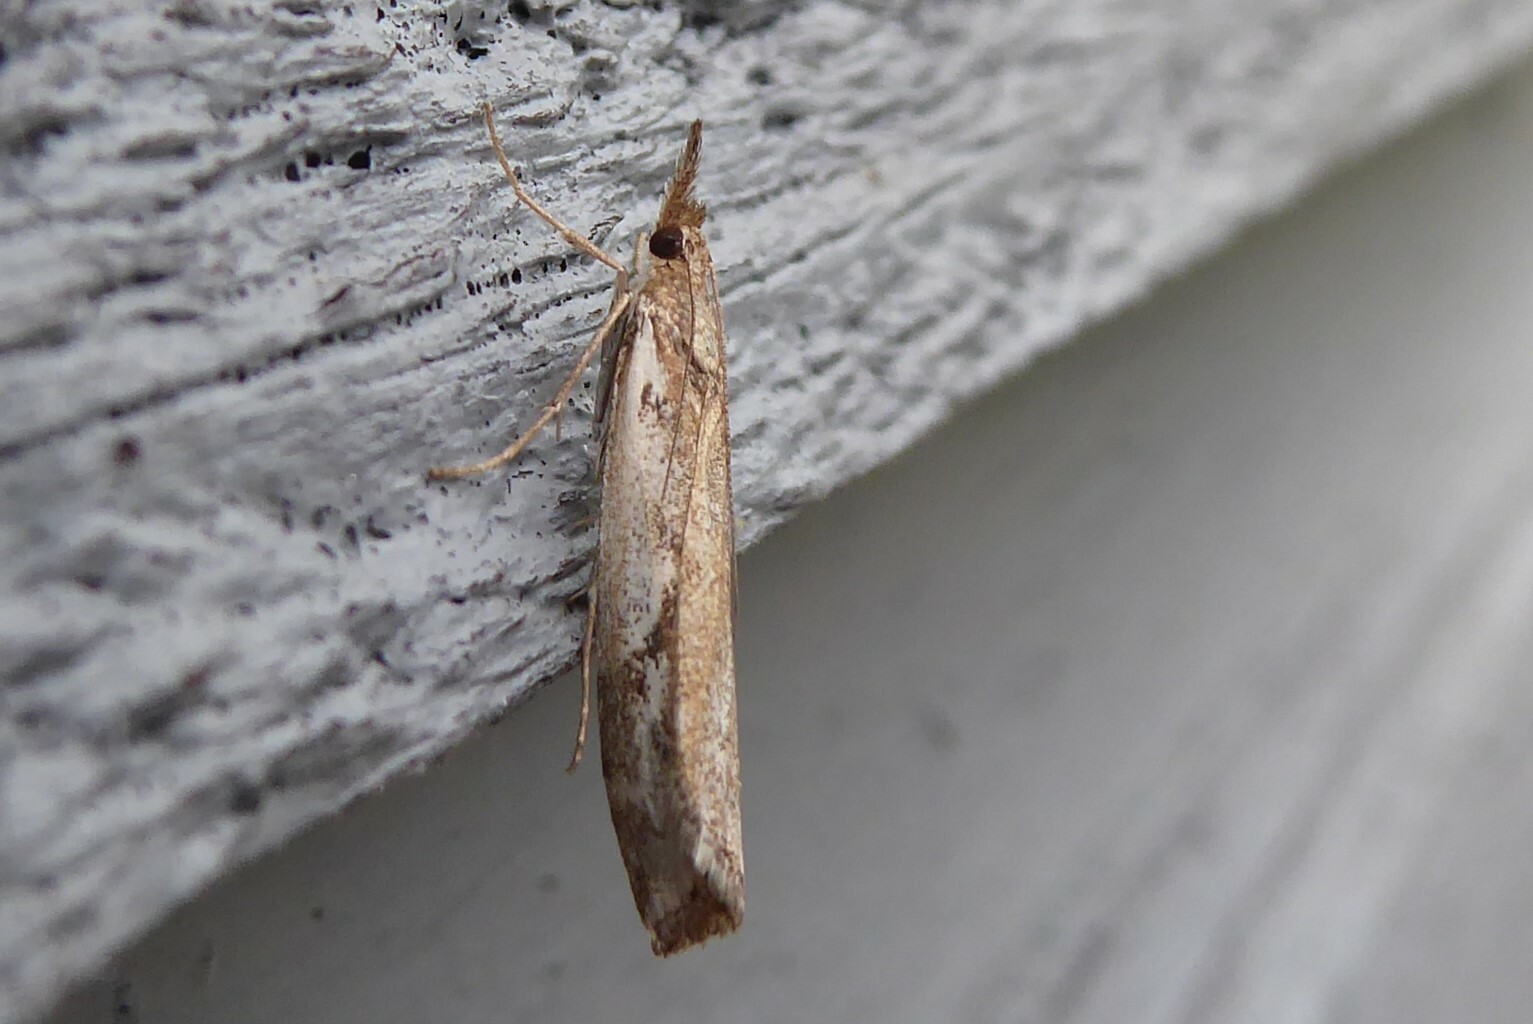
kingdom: Animalia
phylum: Arthropoda
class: Insecta
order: Lepidoptera
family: Crambidae
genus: Orocrambus
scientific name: Orocrambus vulgaris
